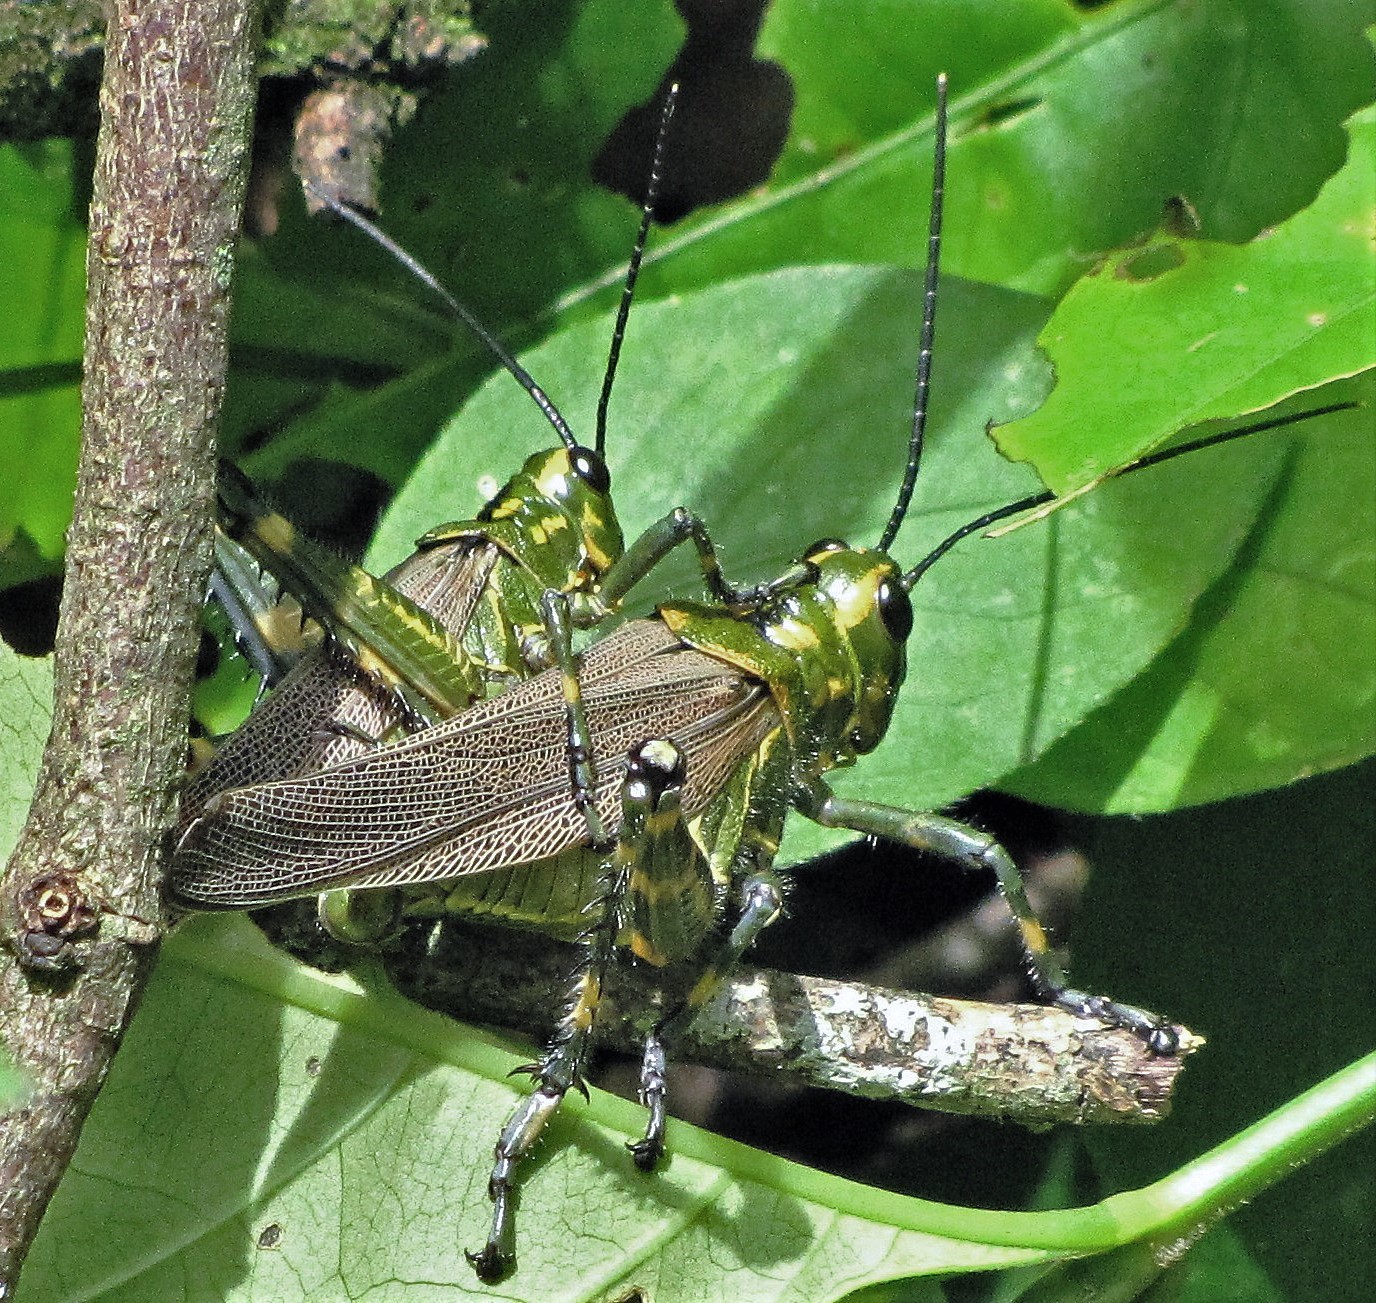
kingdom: Animalia
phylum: Arthropoda
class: Insecta
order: Orthoptera
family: Romaleidae
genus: Chromacris
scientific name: Chromacris speciosa
